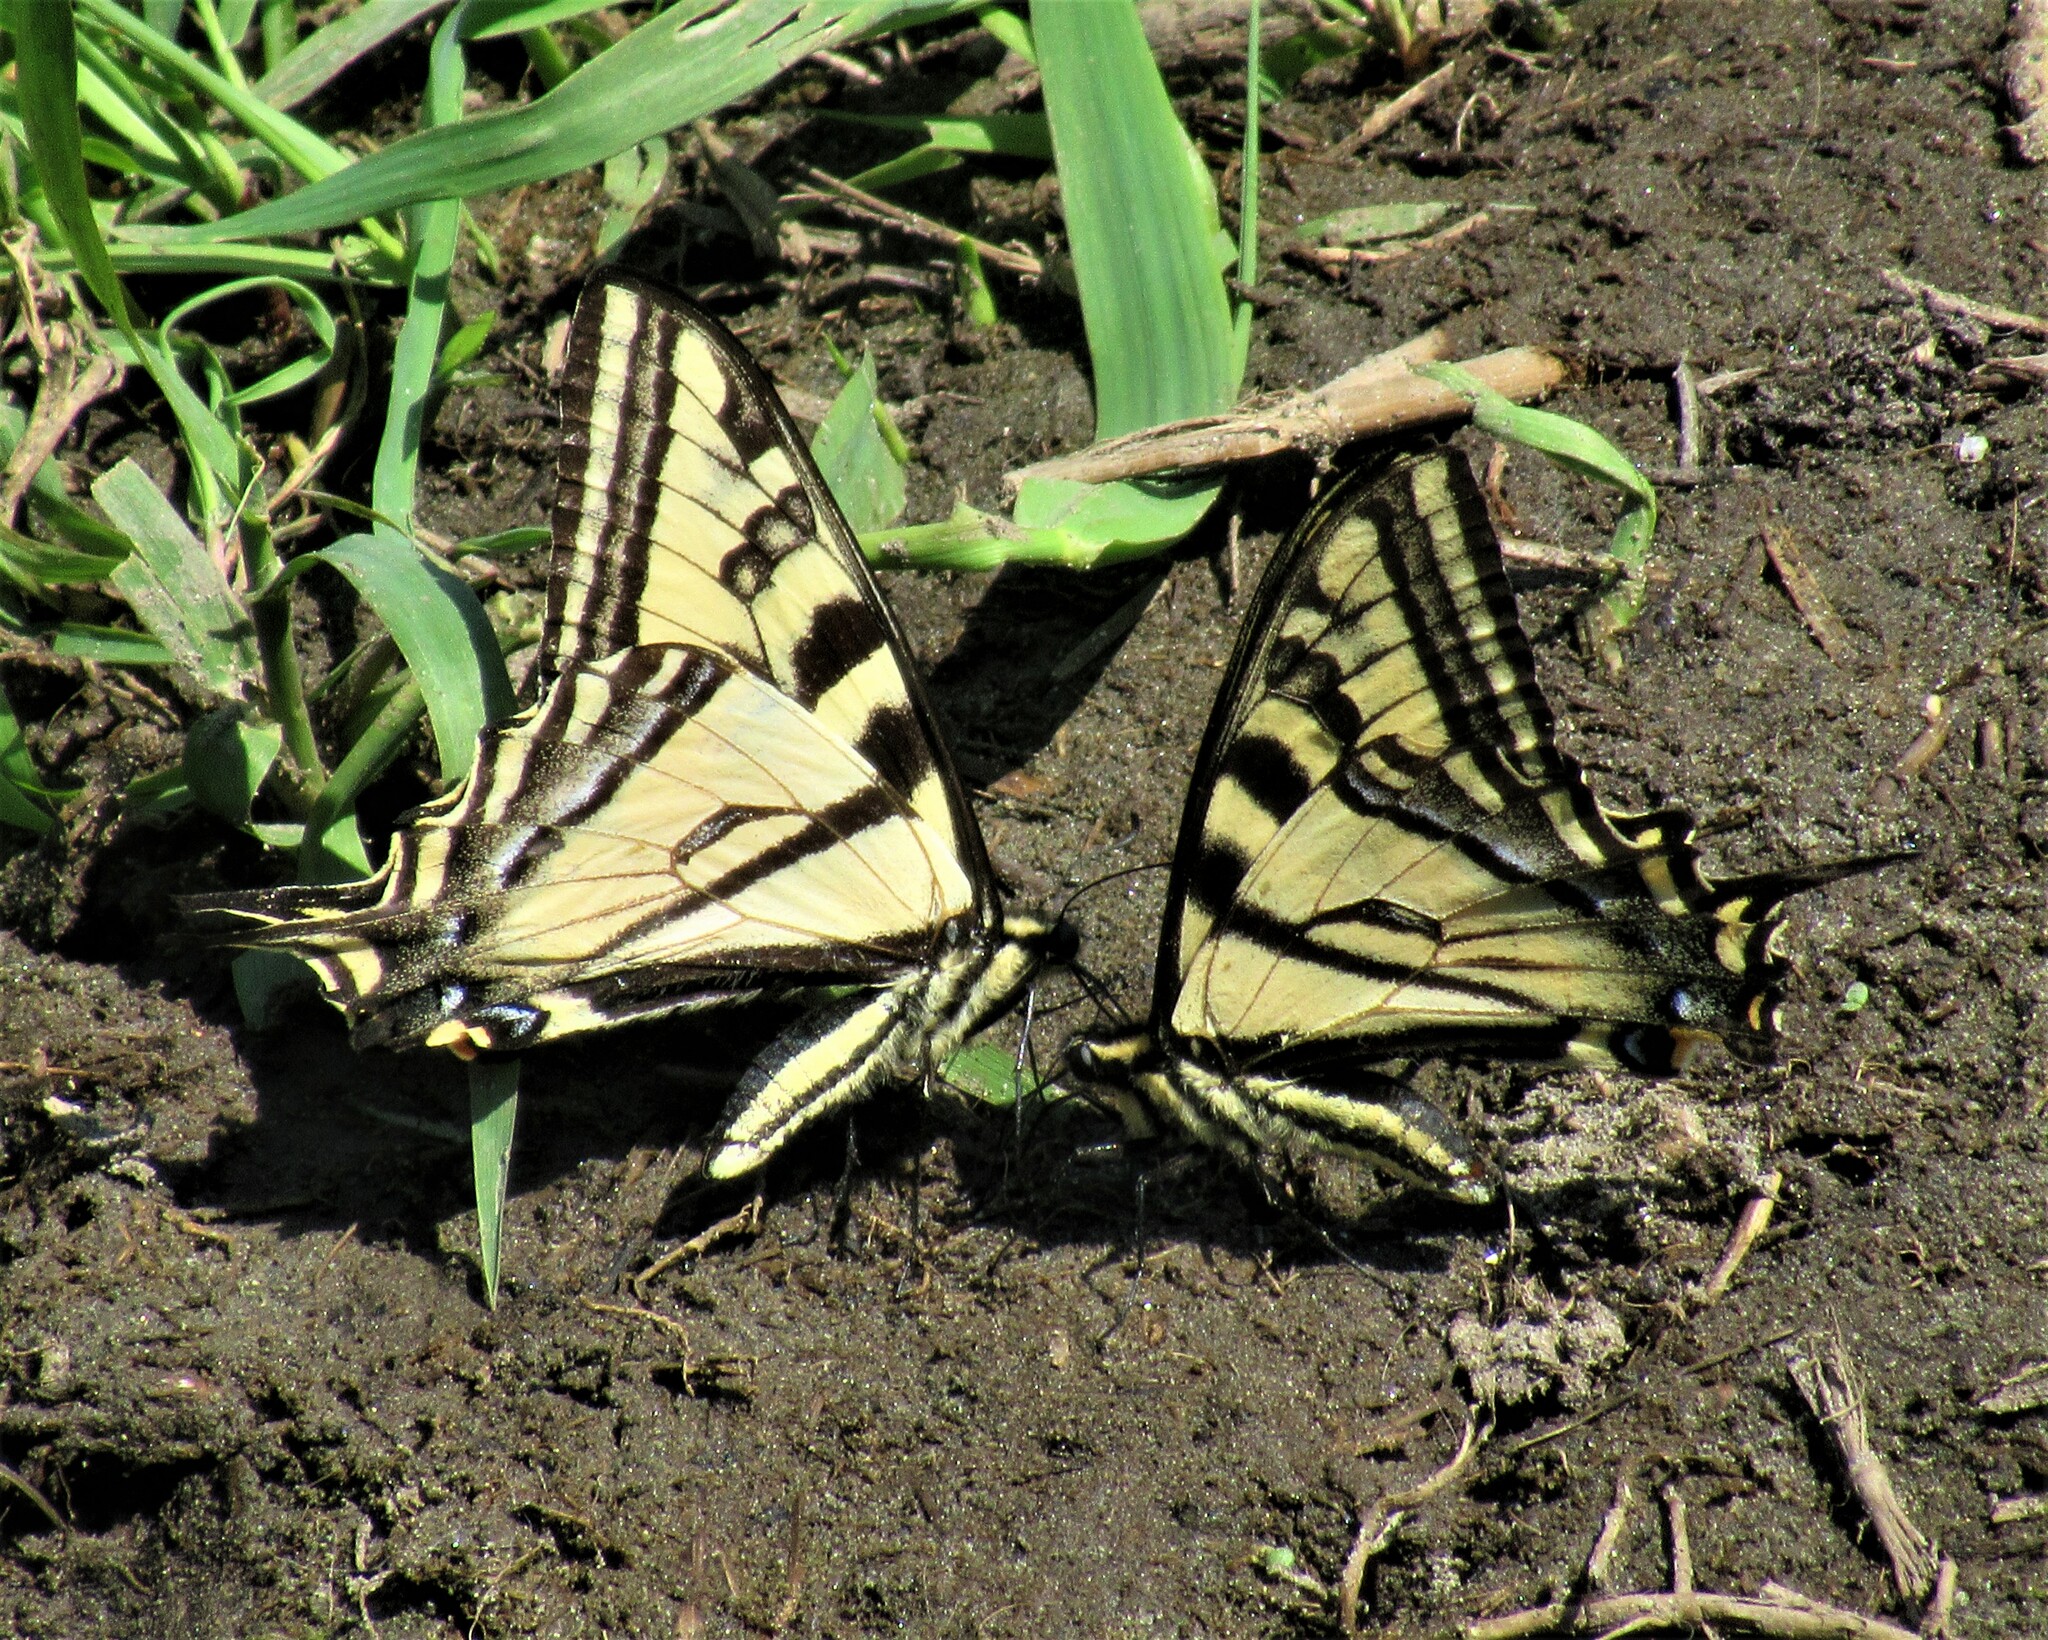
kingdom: Animalia
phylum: Arthropoda
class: Insecta
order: Lepidoptera
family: Papilionidae
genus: Papilio
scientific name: Papilio rutulus
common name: Western tiger swallowtail
